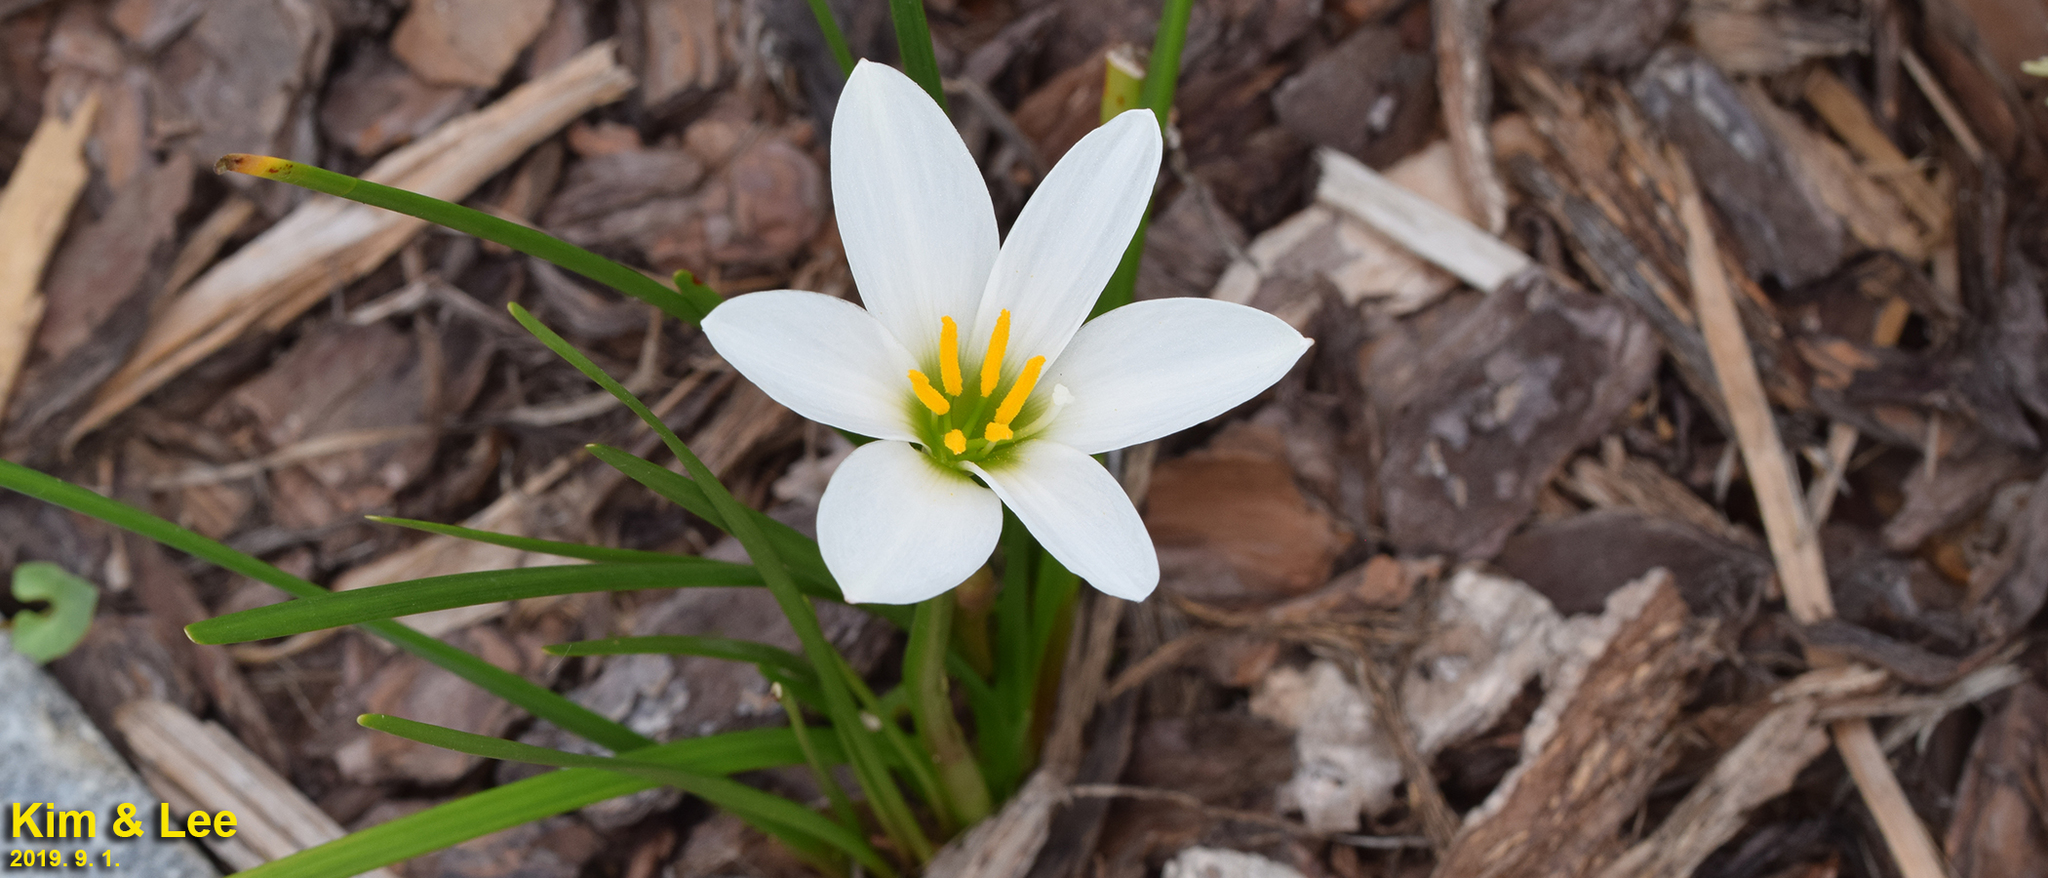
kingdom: Plantae
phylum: Tracheophyta
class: Liliopsida
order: Asparagales
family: Amaryllidaceae
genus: Zephyranthes
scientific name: Zephyranthes candida
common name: Autumn zephyrlily
